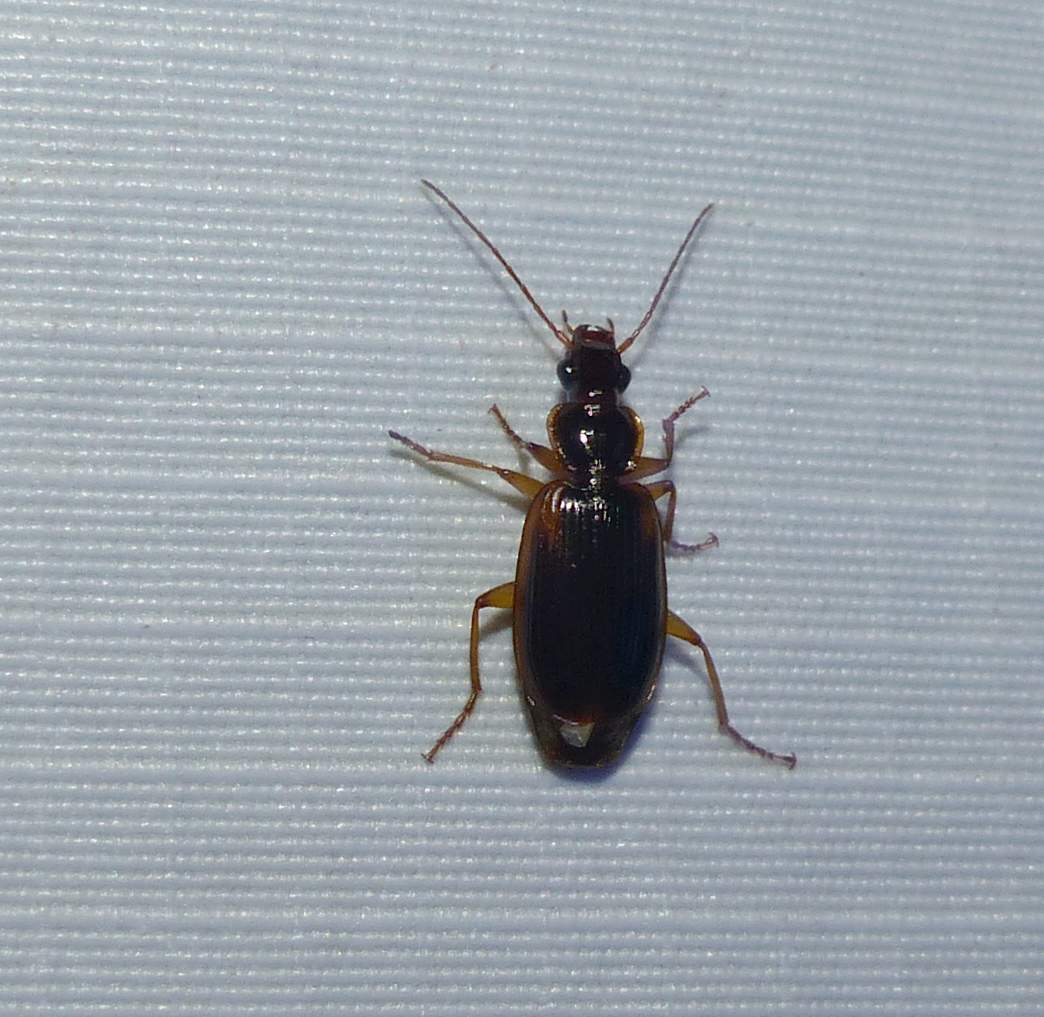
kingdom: Animalia
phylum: Arthropoda
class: Insecta
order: Coleoptera
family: Carabidae
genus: Pinacodera
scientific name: Pinacodera limbata
